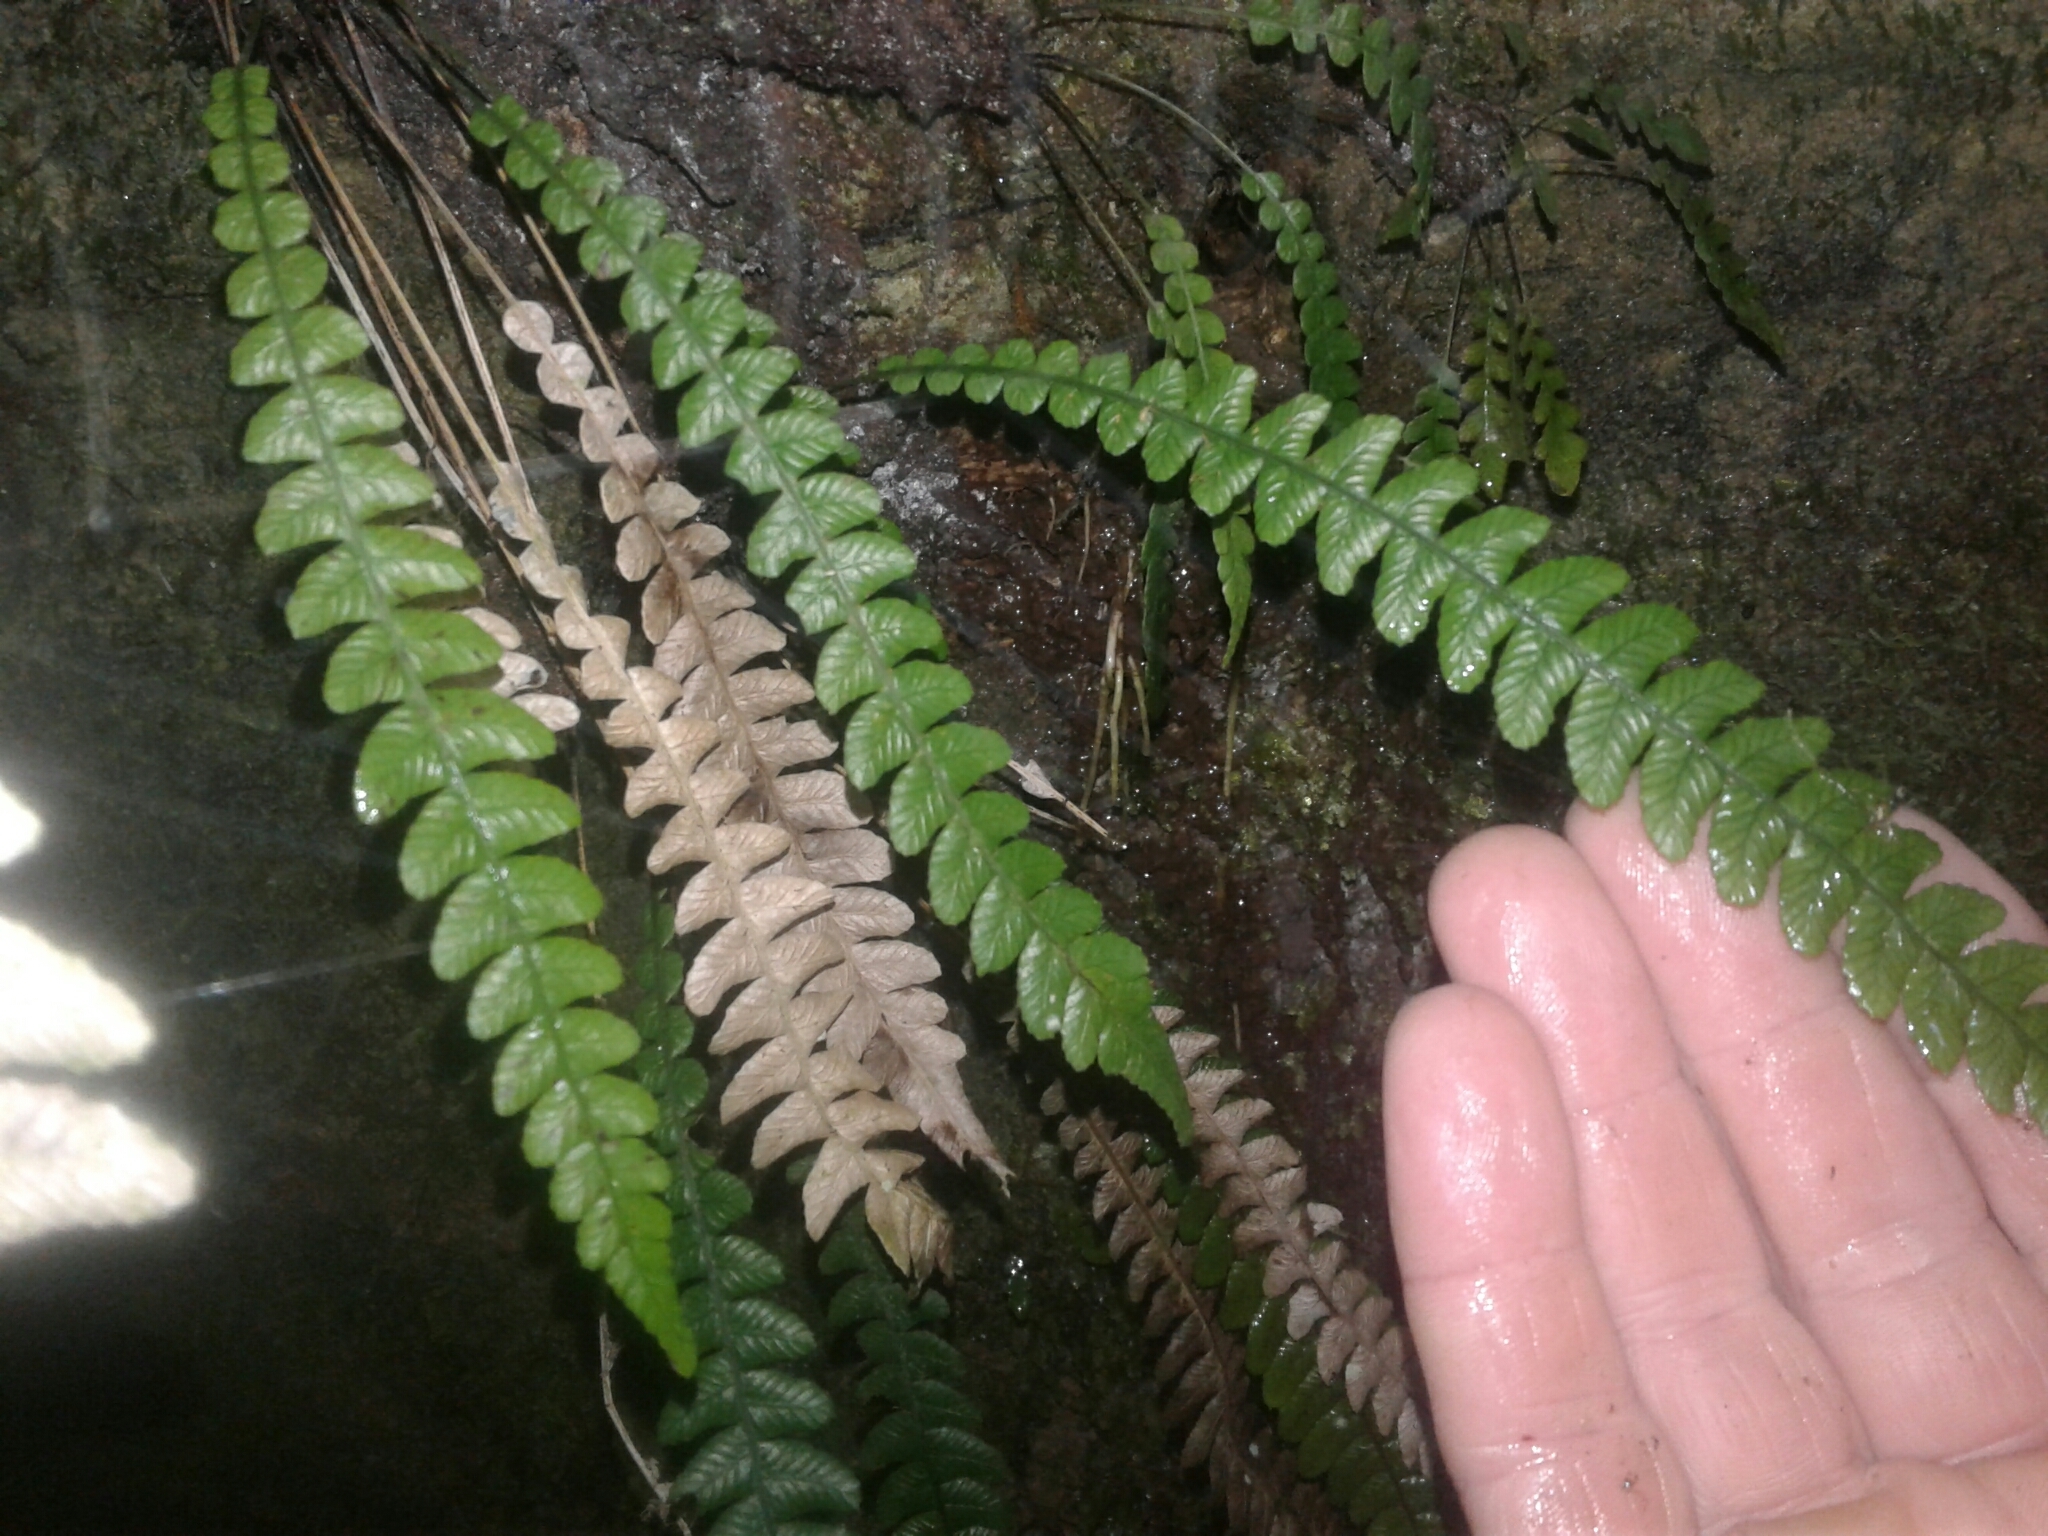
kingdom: Plantae
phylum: Tracheophyta
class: Polypodiopsida
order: Polypodiales
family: Blechnaceae
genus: Austroblechnum
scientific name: Austroblechnum lanceolatum
